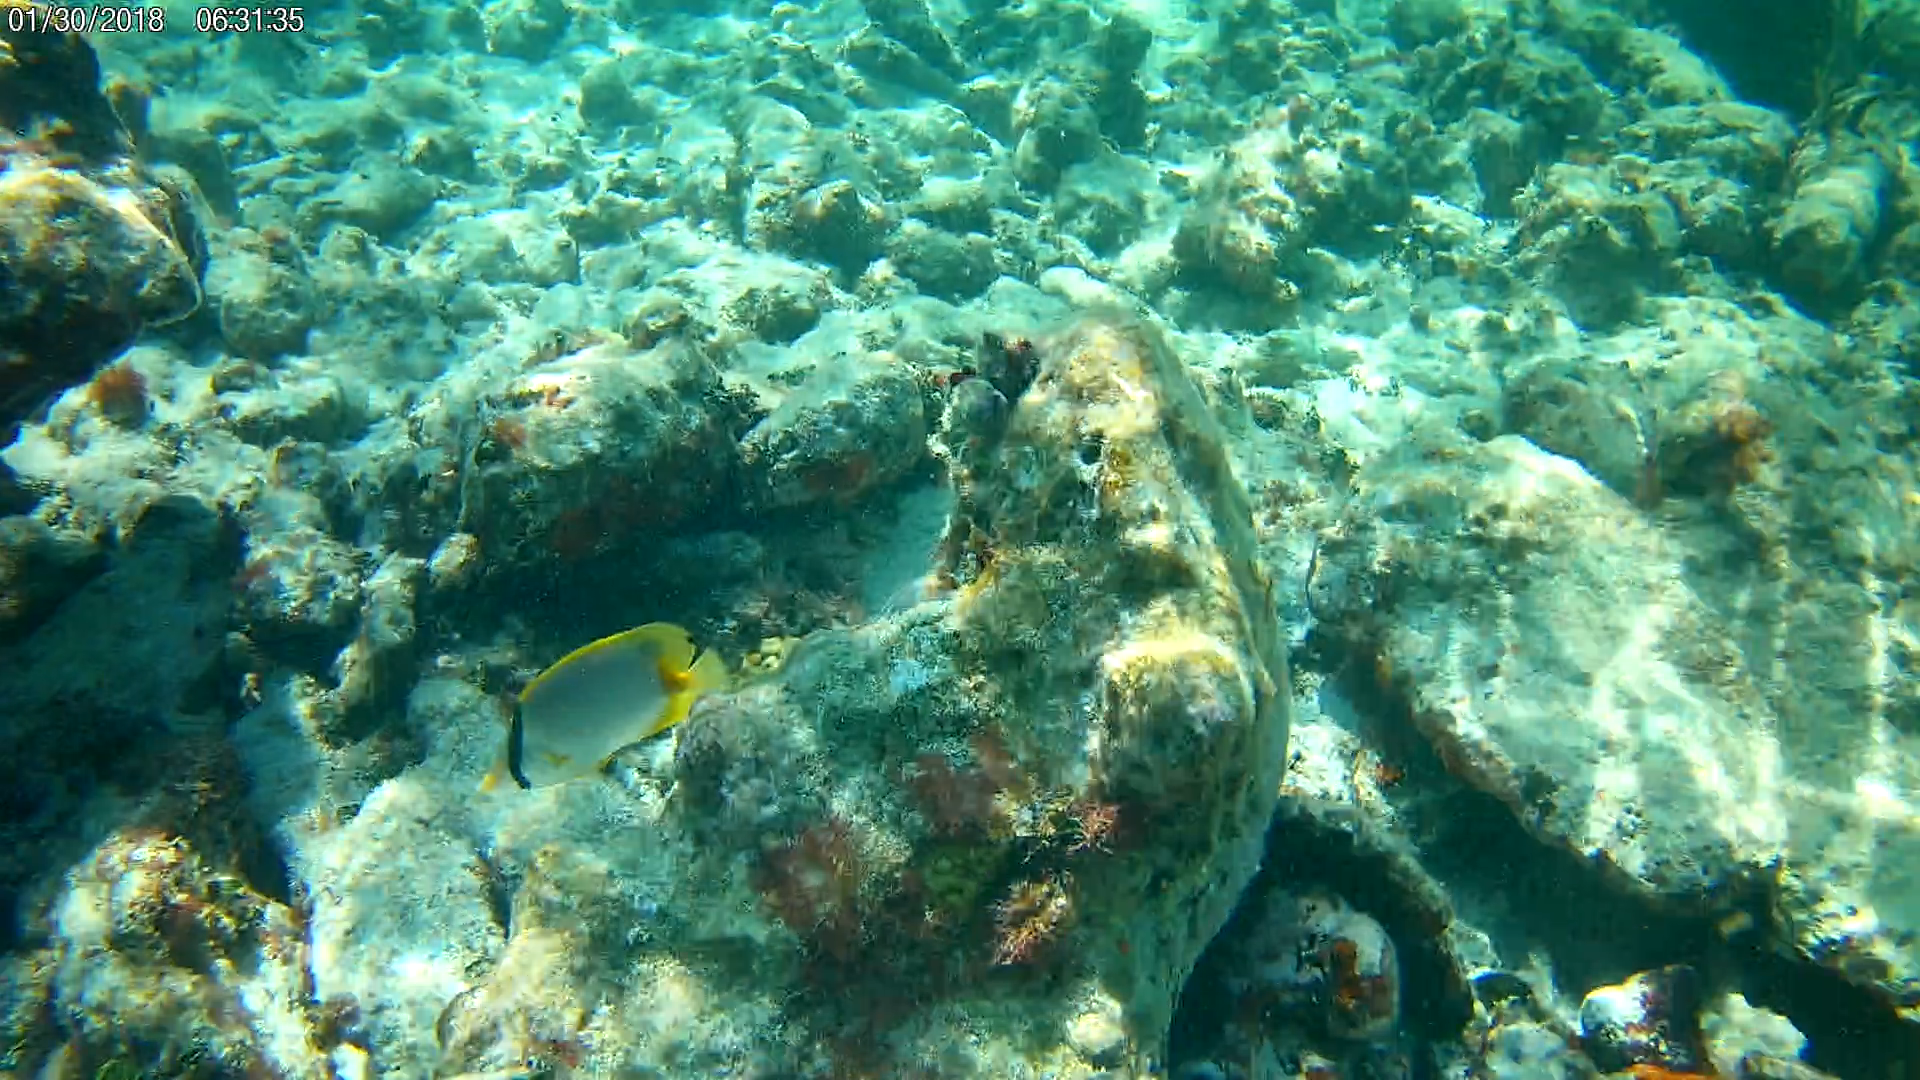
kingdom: Animalia
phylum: Chordata
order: Perciformes
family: Chaetodontidae
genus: Chaetodon
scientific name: Chaetodon ocellatus
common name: Spotfin butterflyfish
